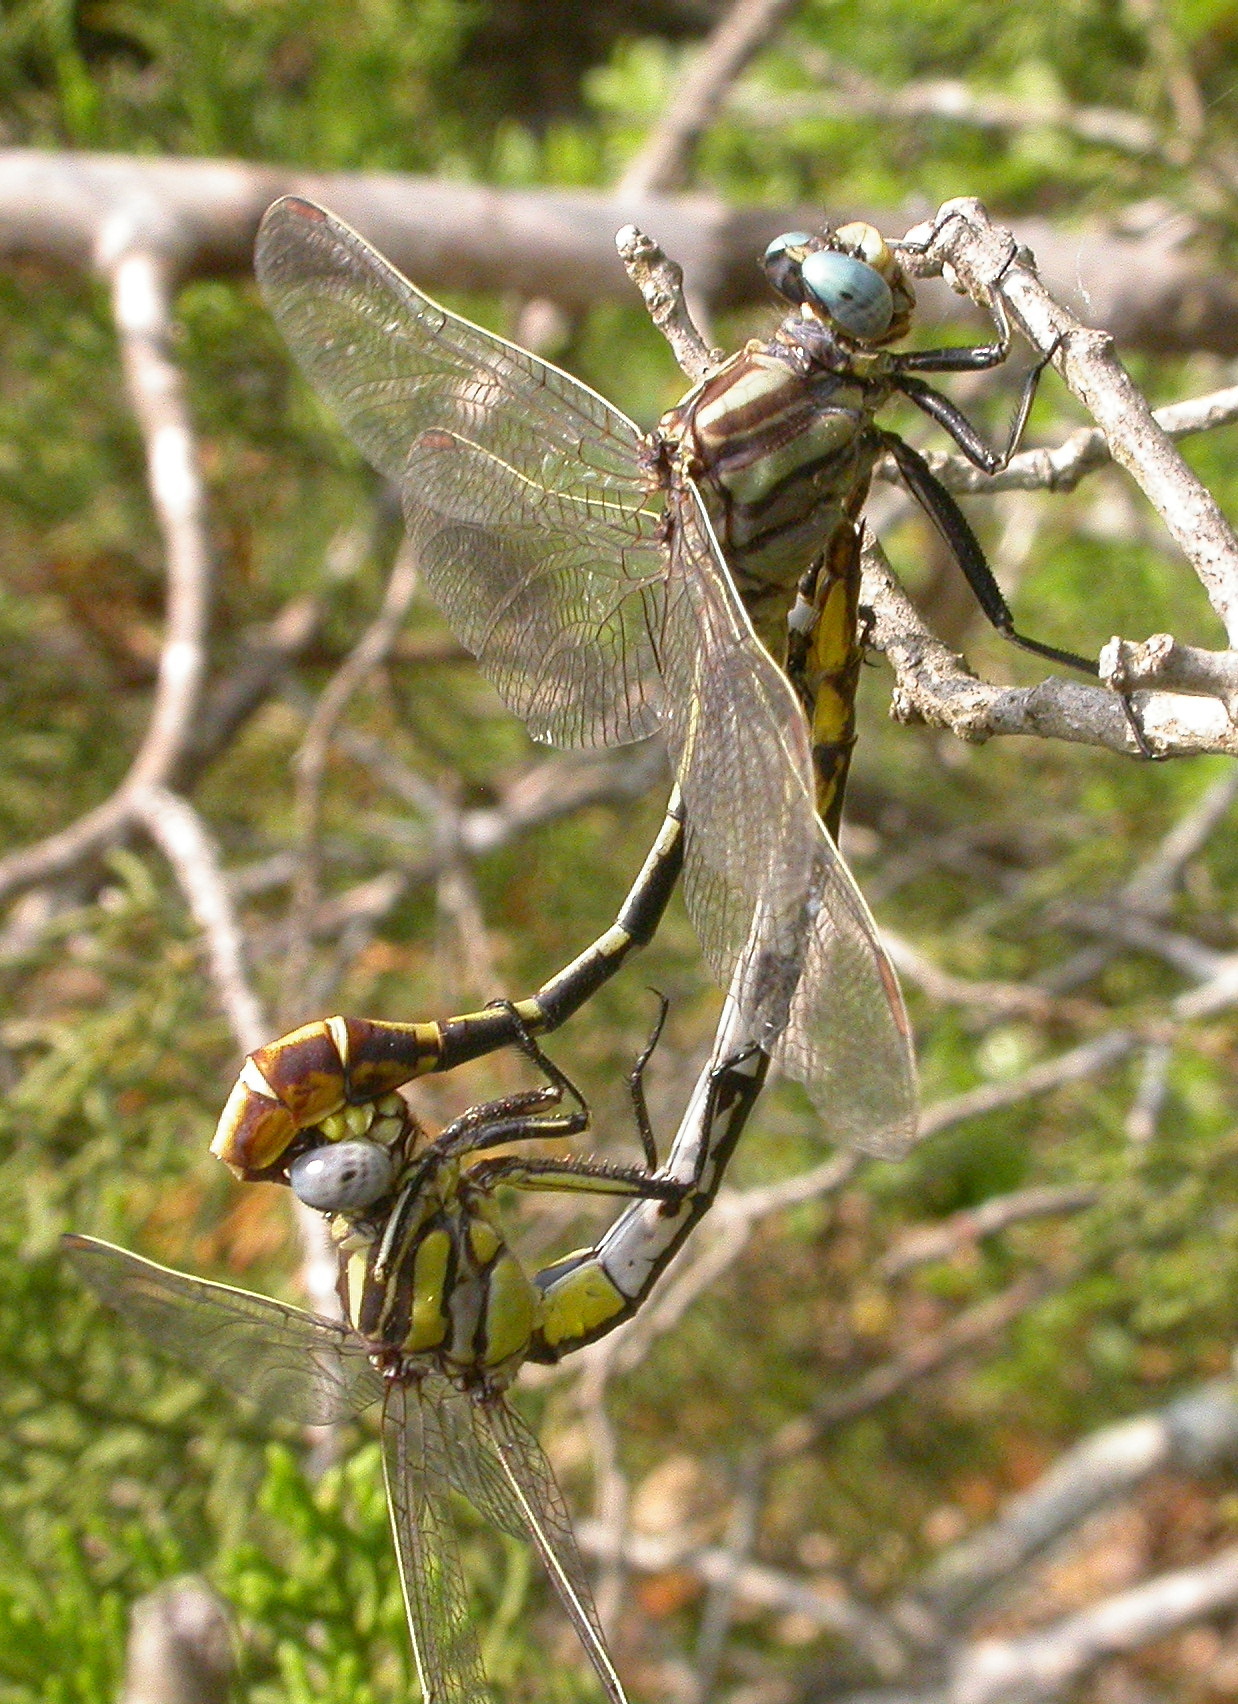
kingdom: Animalia
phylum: Arthropoda
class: Insecta
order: Odonata
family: Gomphidae
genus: Phanogomphus
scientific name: Phanogomphus militaris
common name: Sulphur-tipped clubtail
